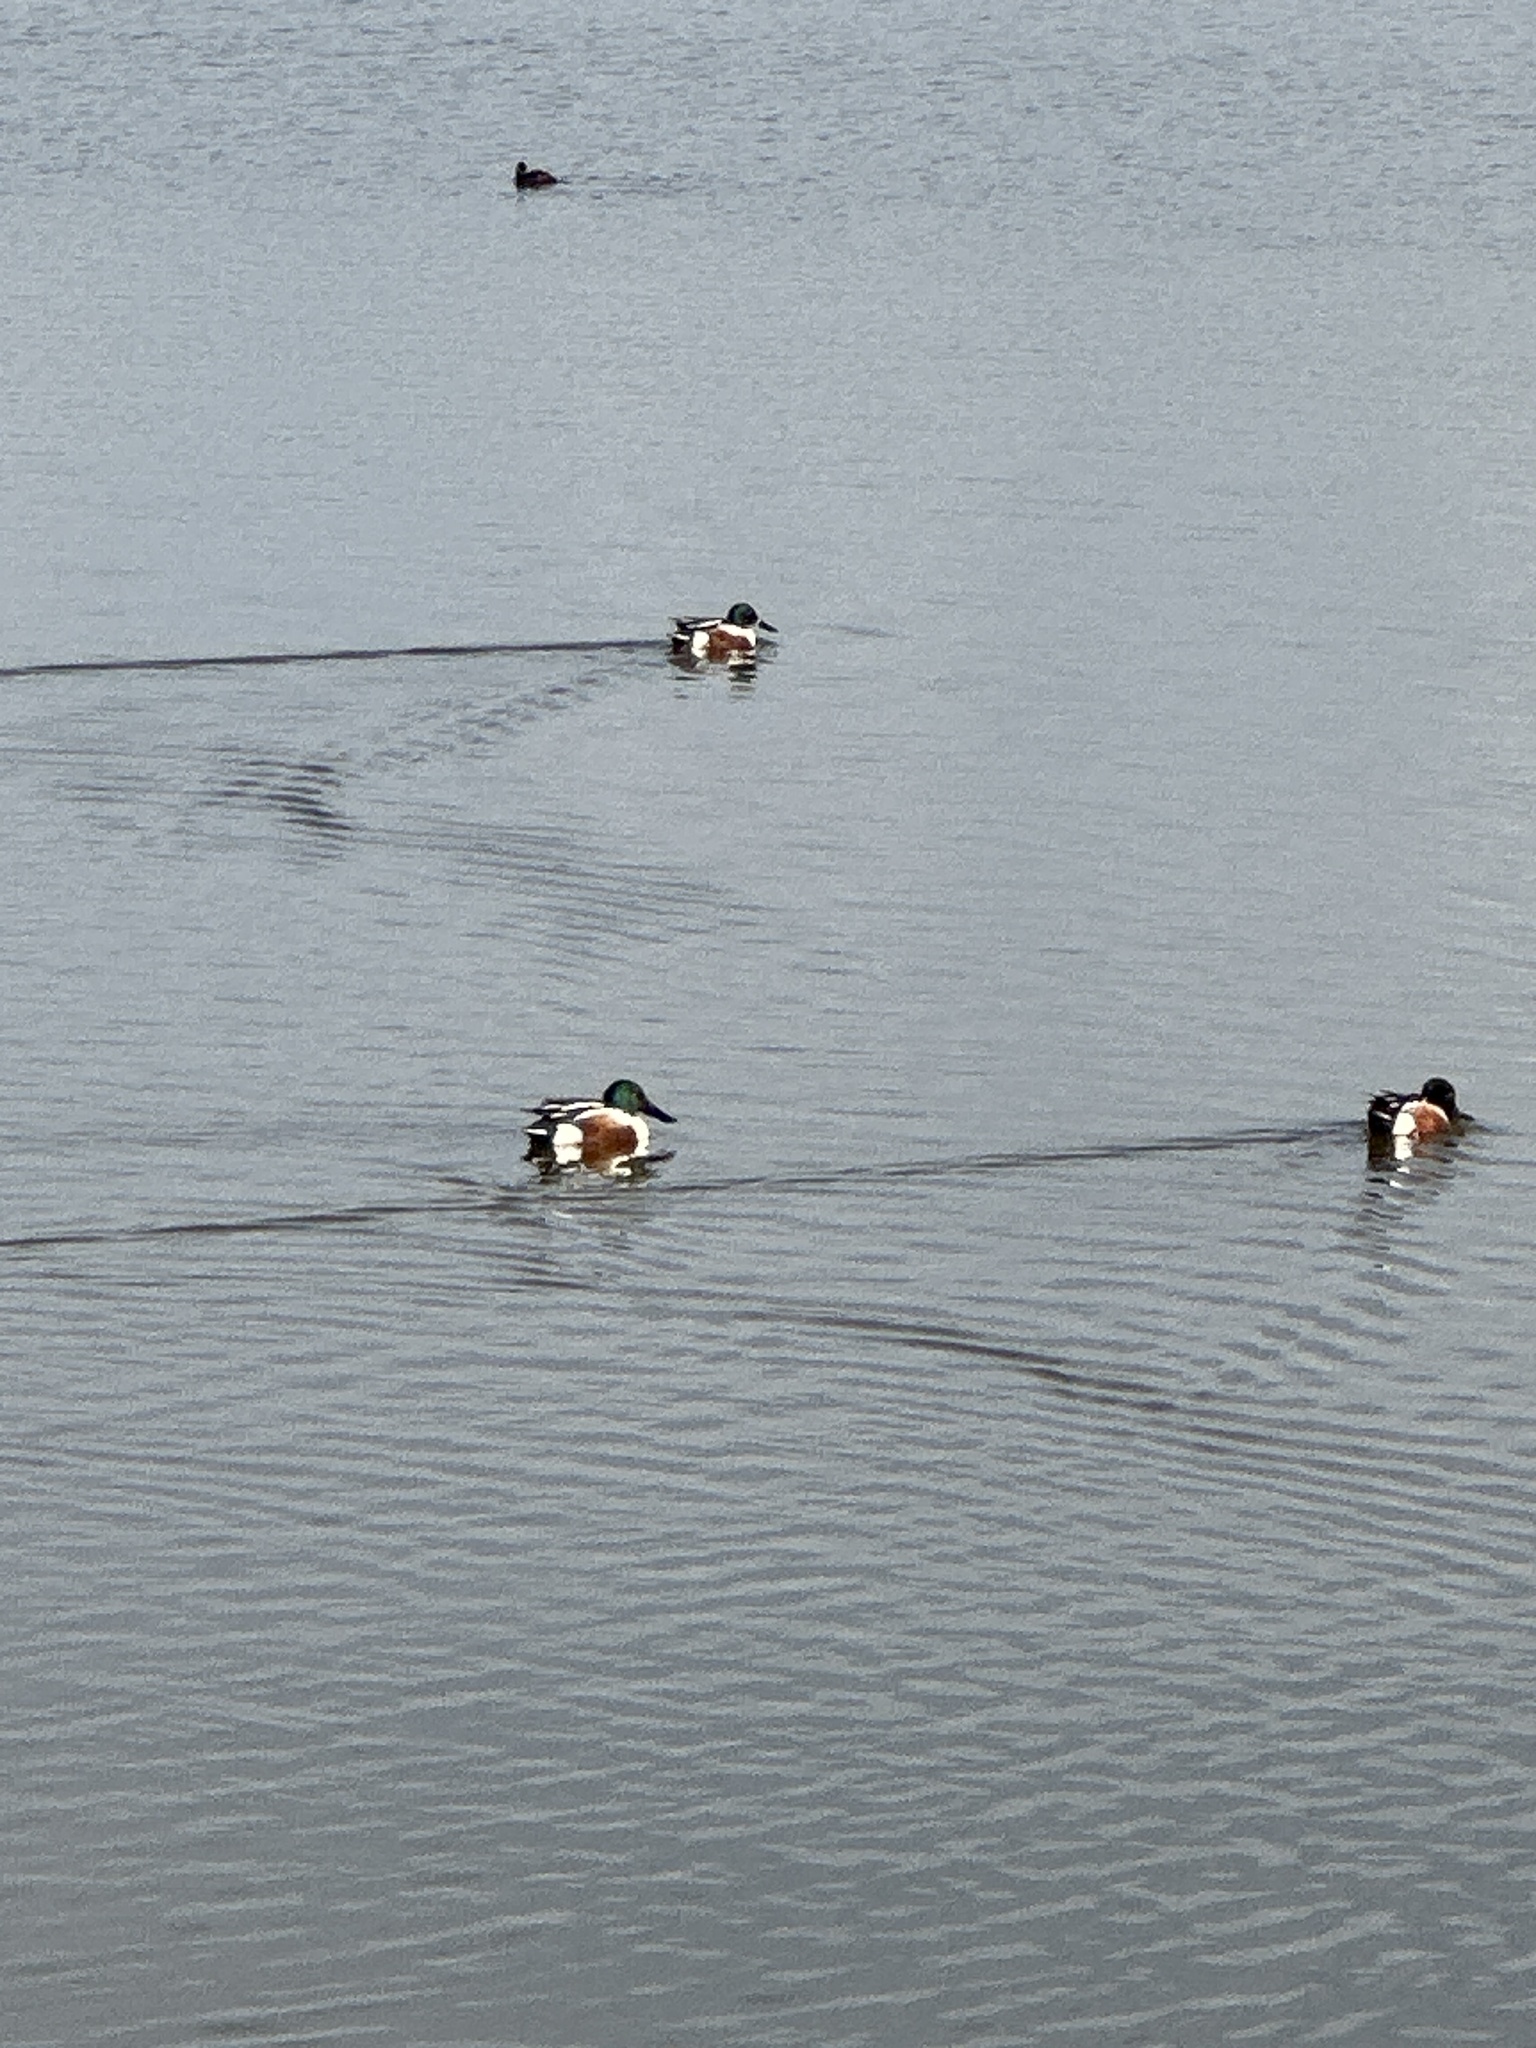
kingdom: Animalia
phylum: Chordata
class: Aves
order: Anseriformes
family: Anatidae
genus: Spatula
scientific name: Spatula clypeata
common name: Northern shoveler
